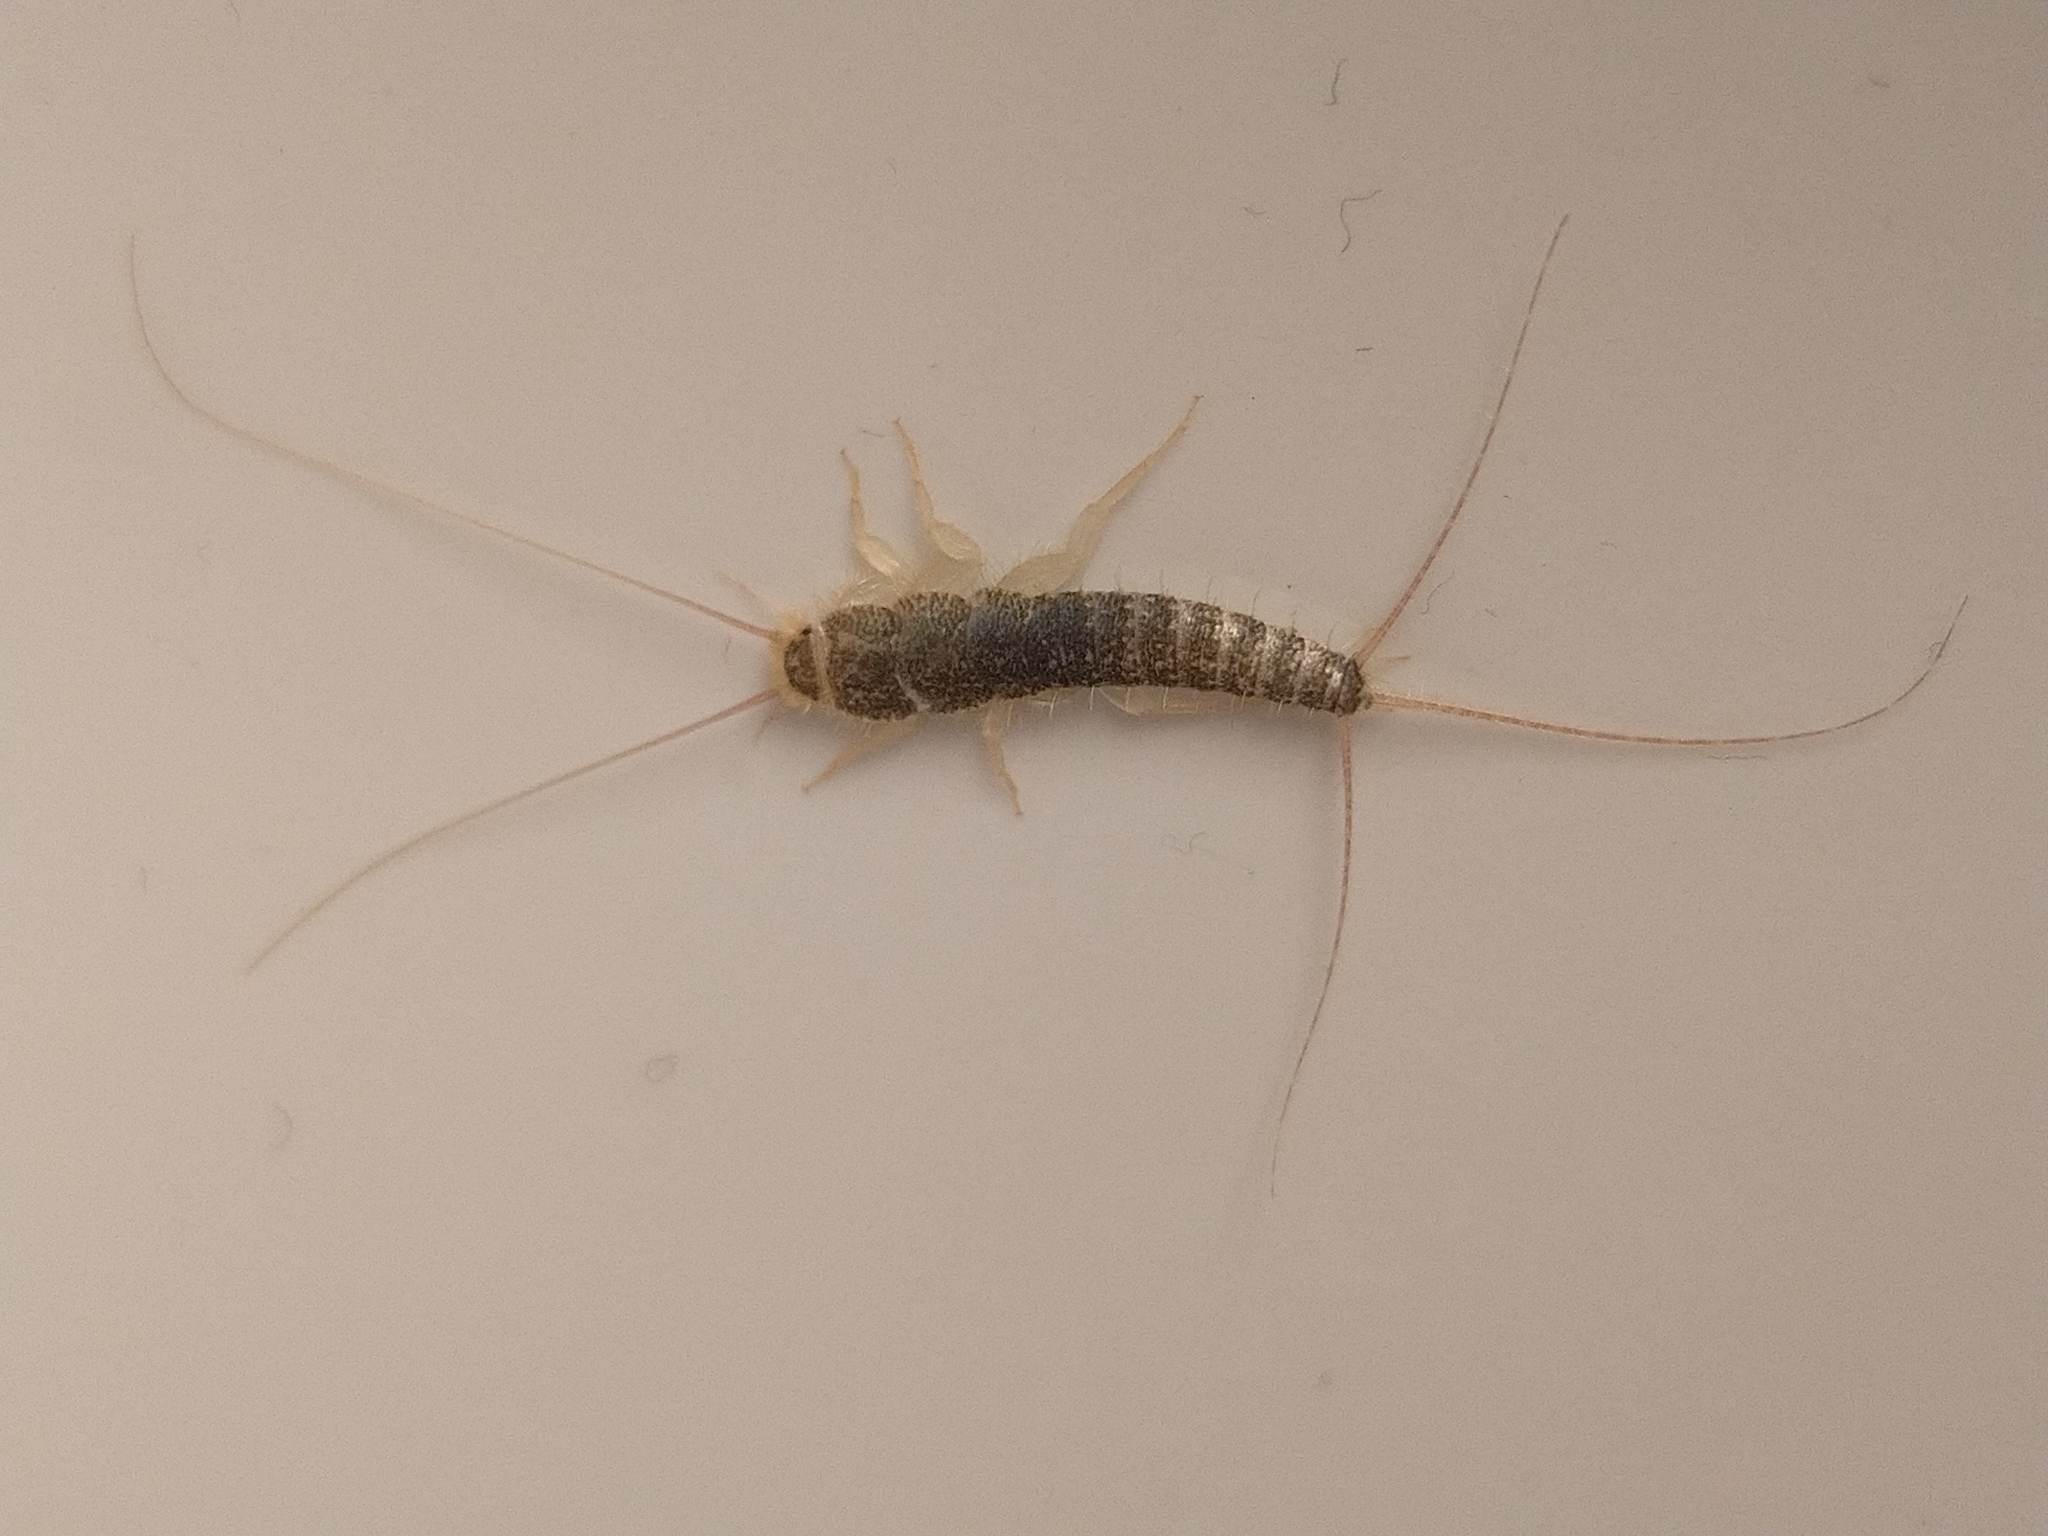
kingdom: Animalia
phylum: Arthropoda
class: Insecta
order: Zygentoma
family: Lepismatidae
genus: Ctenolepisma
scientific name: Ctenolepisma longicaudatum
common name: Silverfish
